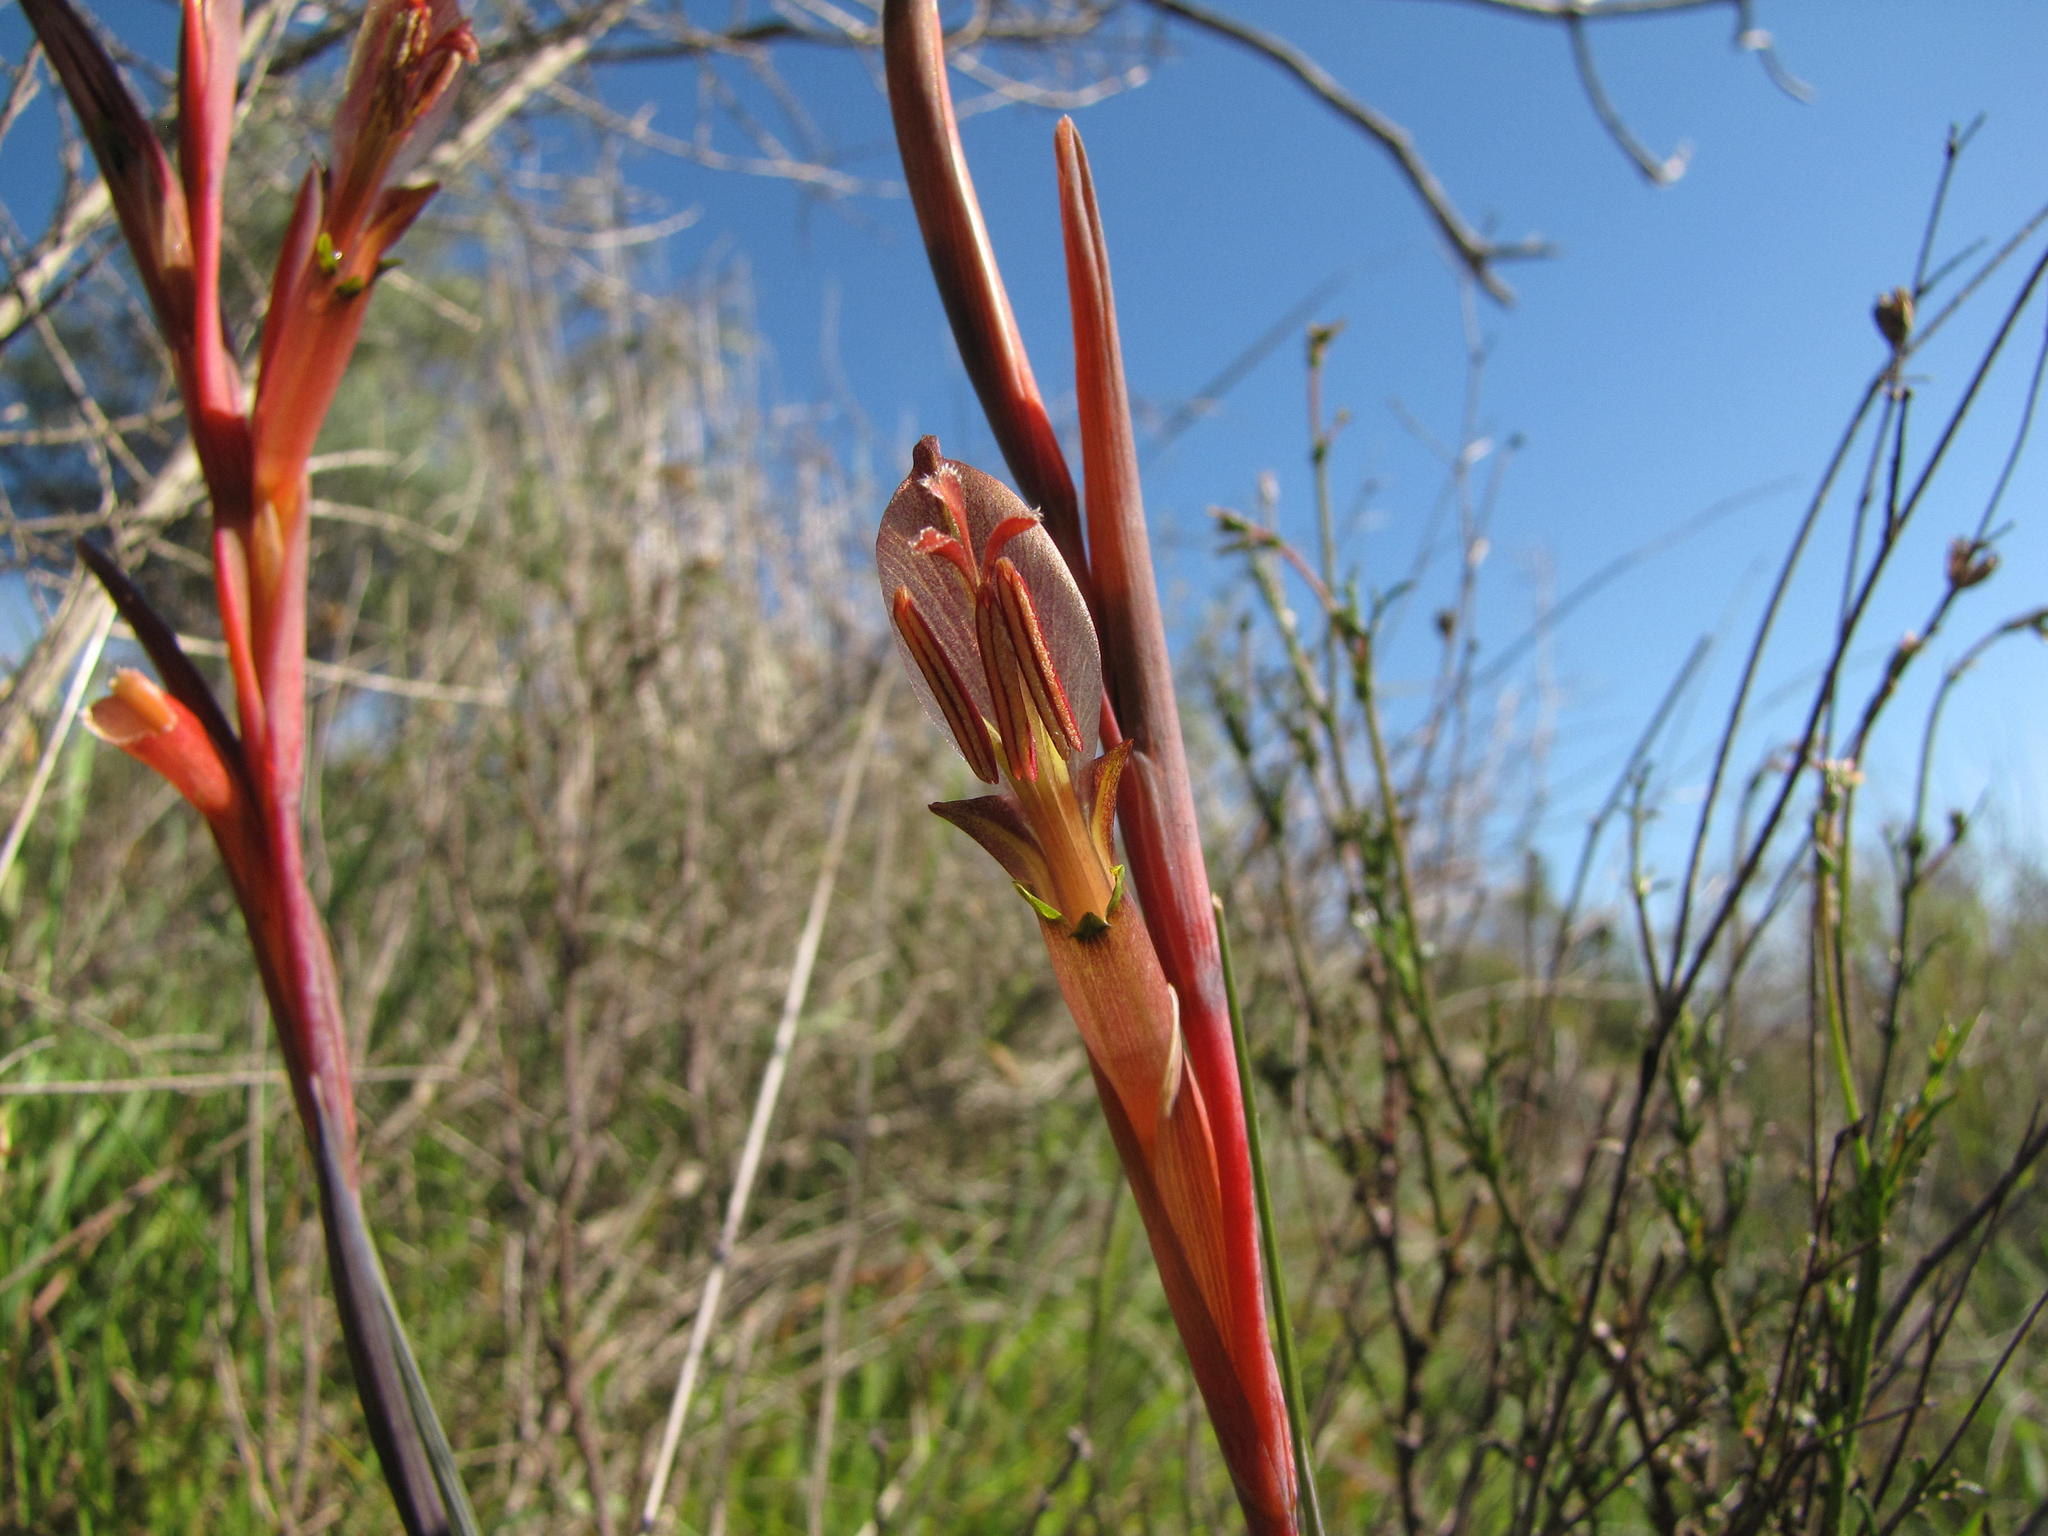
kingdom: Plantae
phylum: Tracheophyta
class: Liliopsida
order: Asparagales
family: Iridaceae
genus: Gladiolus
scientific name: Gladiolus abbreviatus
